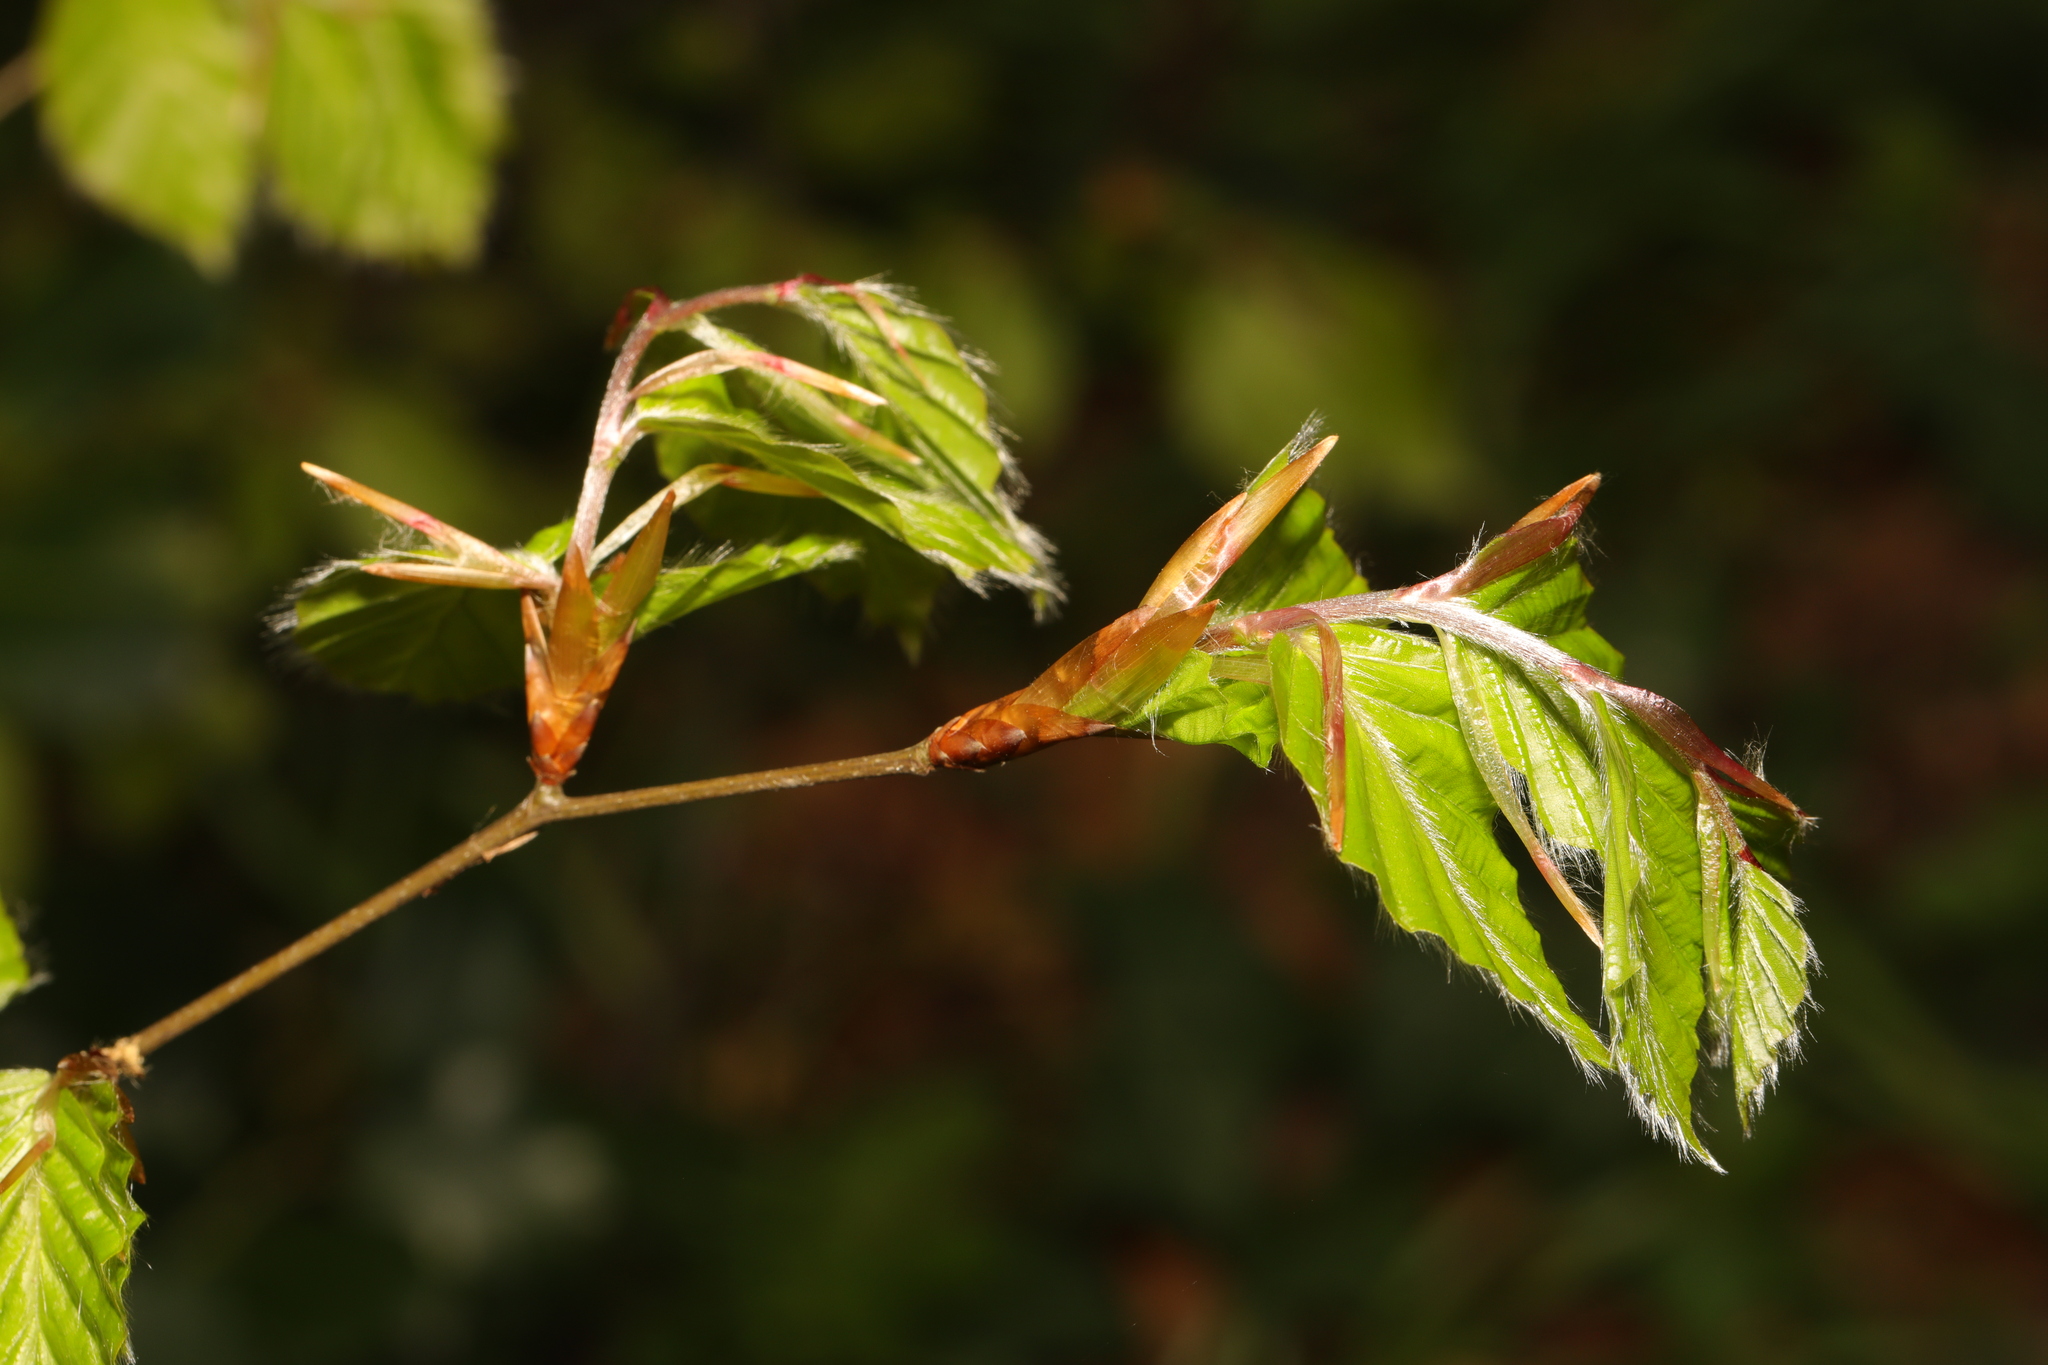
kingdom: Plantae
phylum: Tracheophyta
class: Magnoliopsida
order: Fagales
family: Fagaceae
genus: Fagus
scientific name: Fagus sylvatica
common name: Beech
